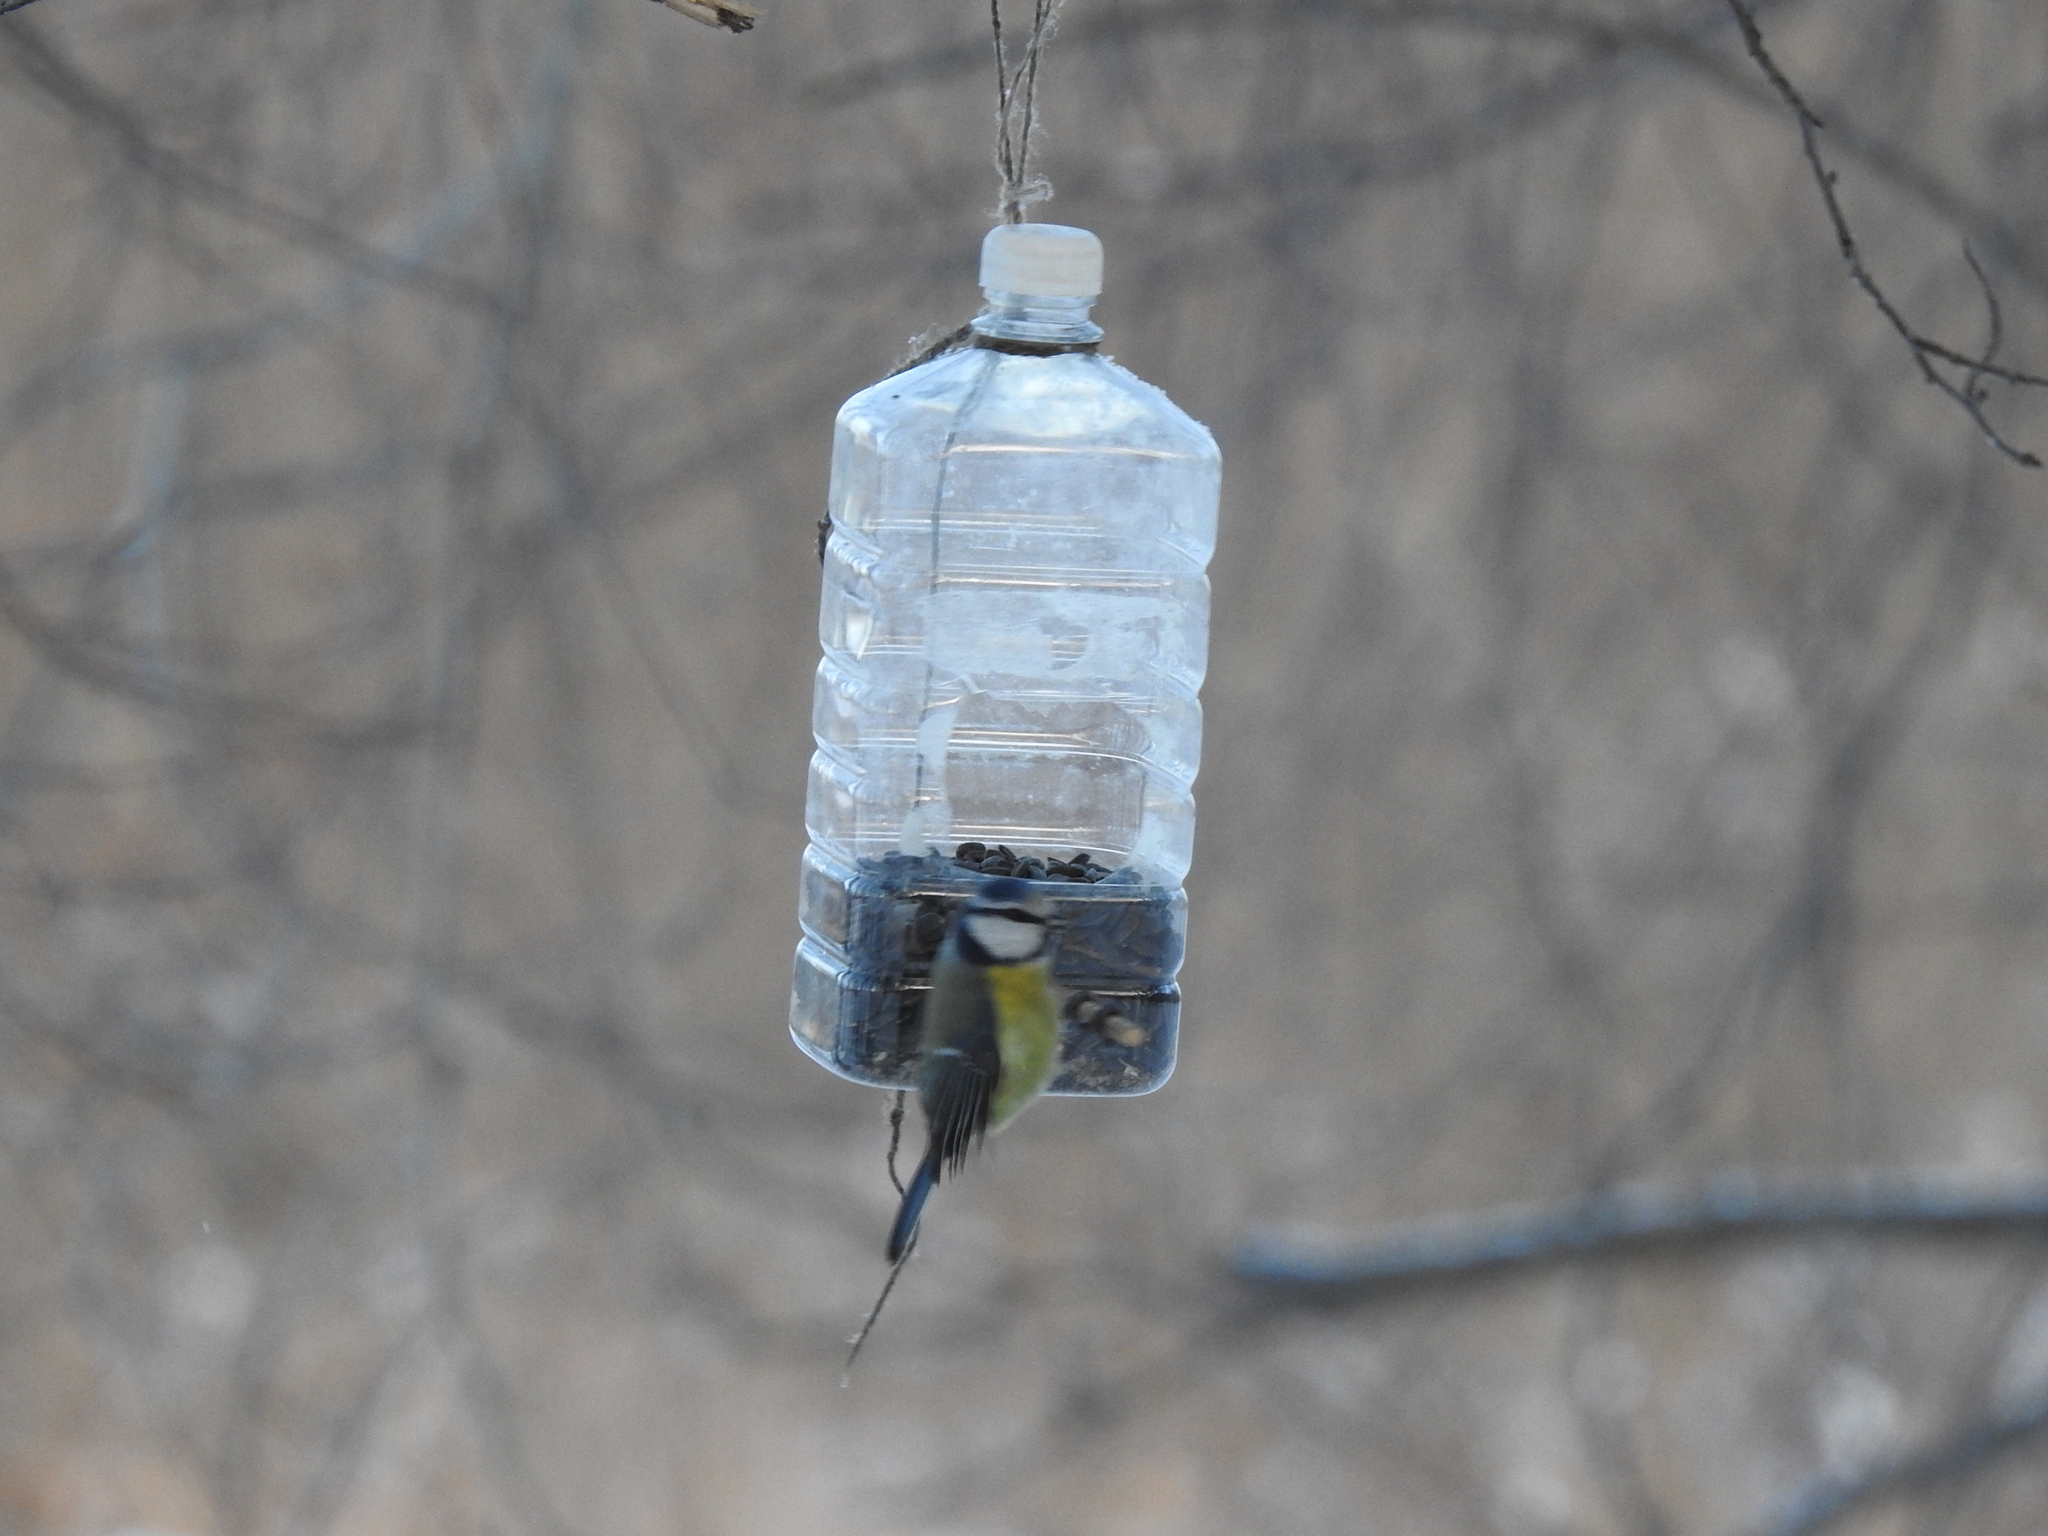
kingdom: Animalia
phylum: Chordata
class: Aves
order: Passeriformes
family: Paridae
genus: Cyanistes
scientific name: Cyanistes caeruleus
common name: Eurasian blue tit
